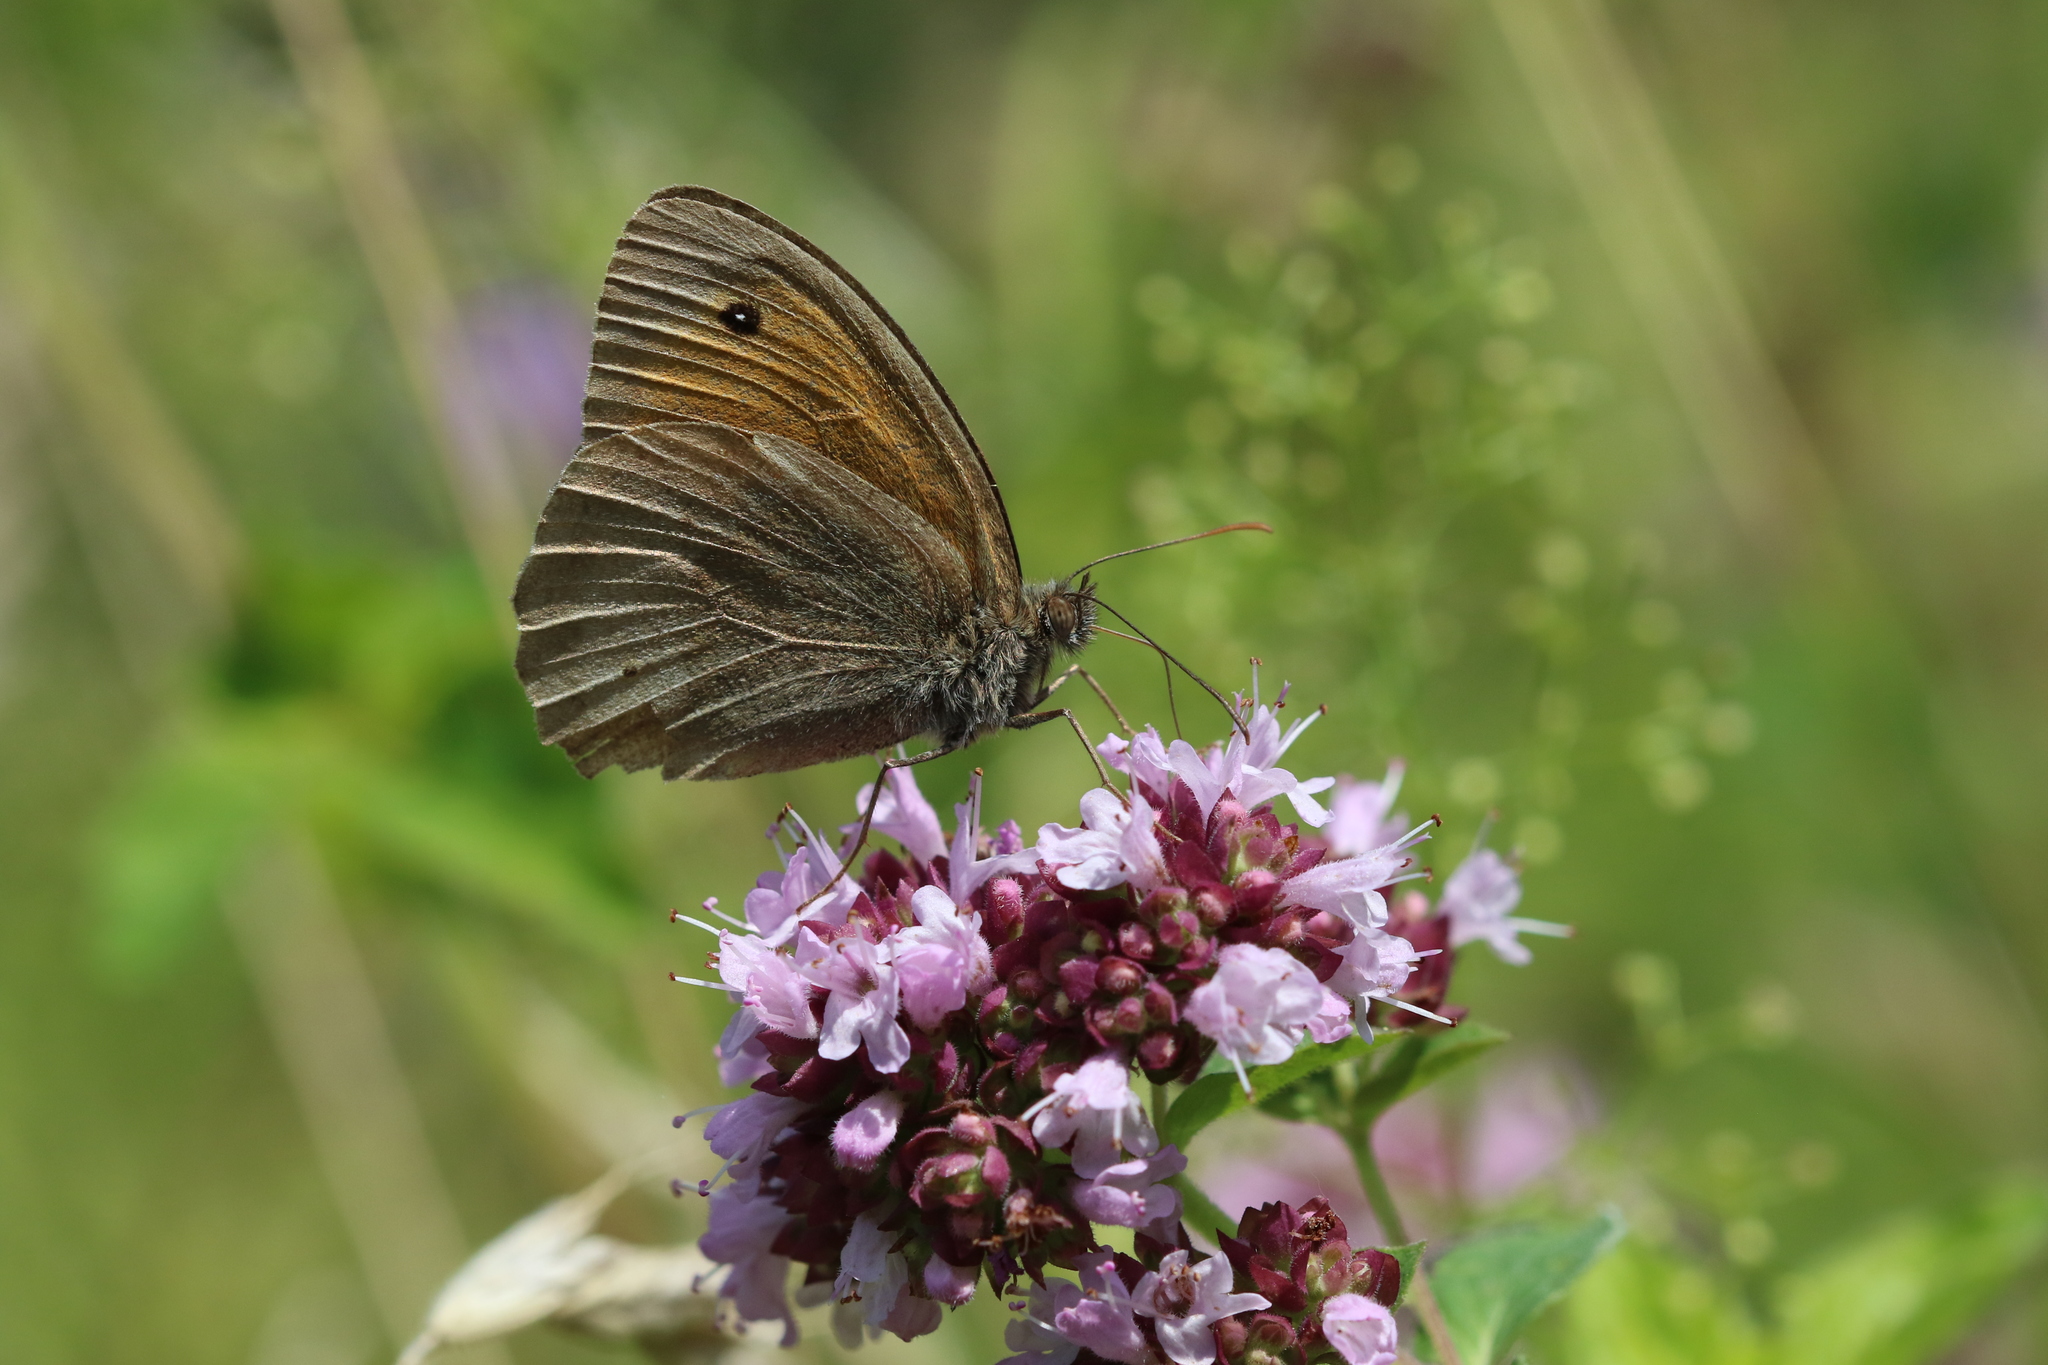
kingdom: Animalia
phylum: Arthropoda
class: Insecta
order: Lepidoptera
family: Nymphalidae
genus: Maniola
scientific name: Maniola jurtina
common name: Meadow brown
